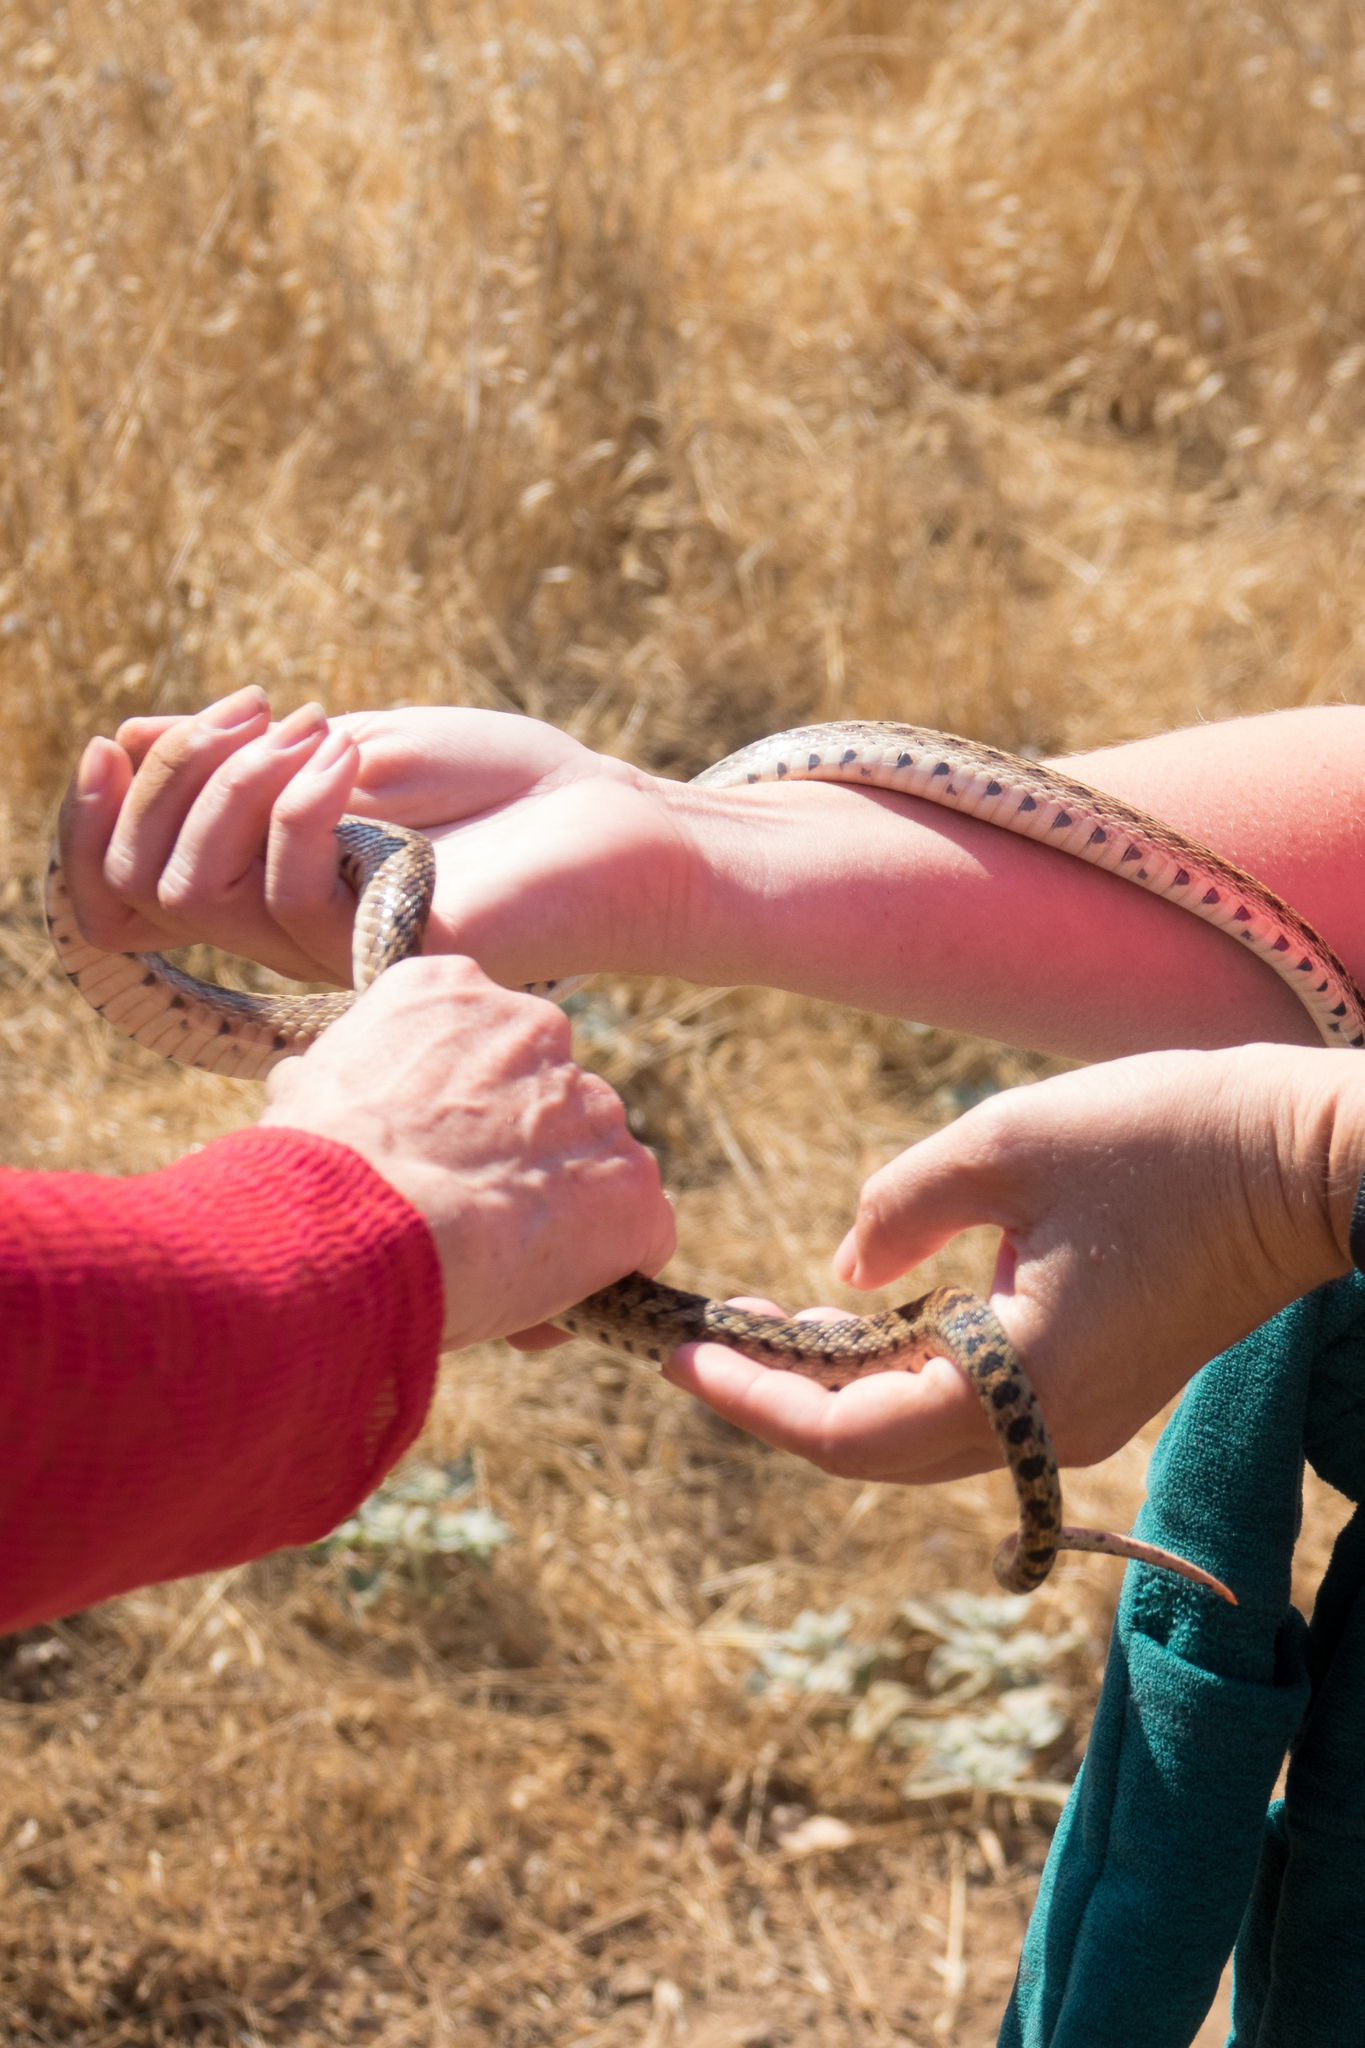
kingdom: Animalia
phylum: Chordata
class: Squamata
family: Colubridae
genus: Pituophis
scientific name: Pituophis catenifer
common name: Gopher snake
